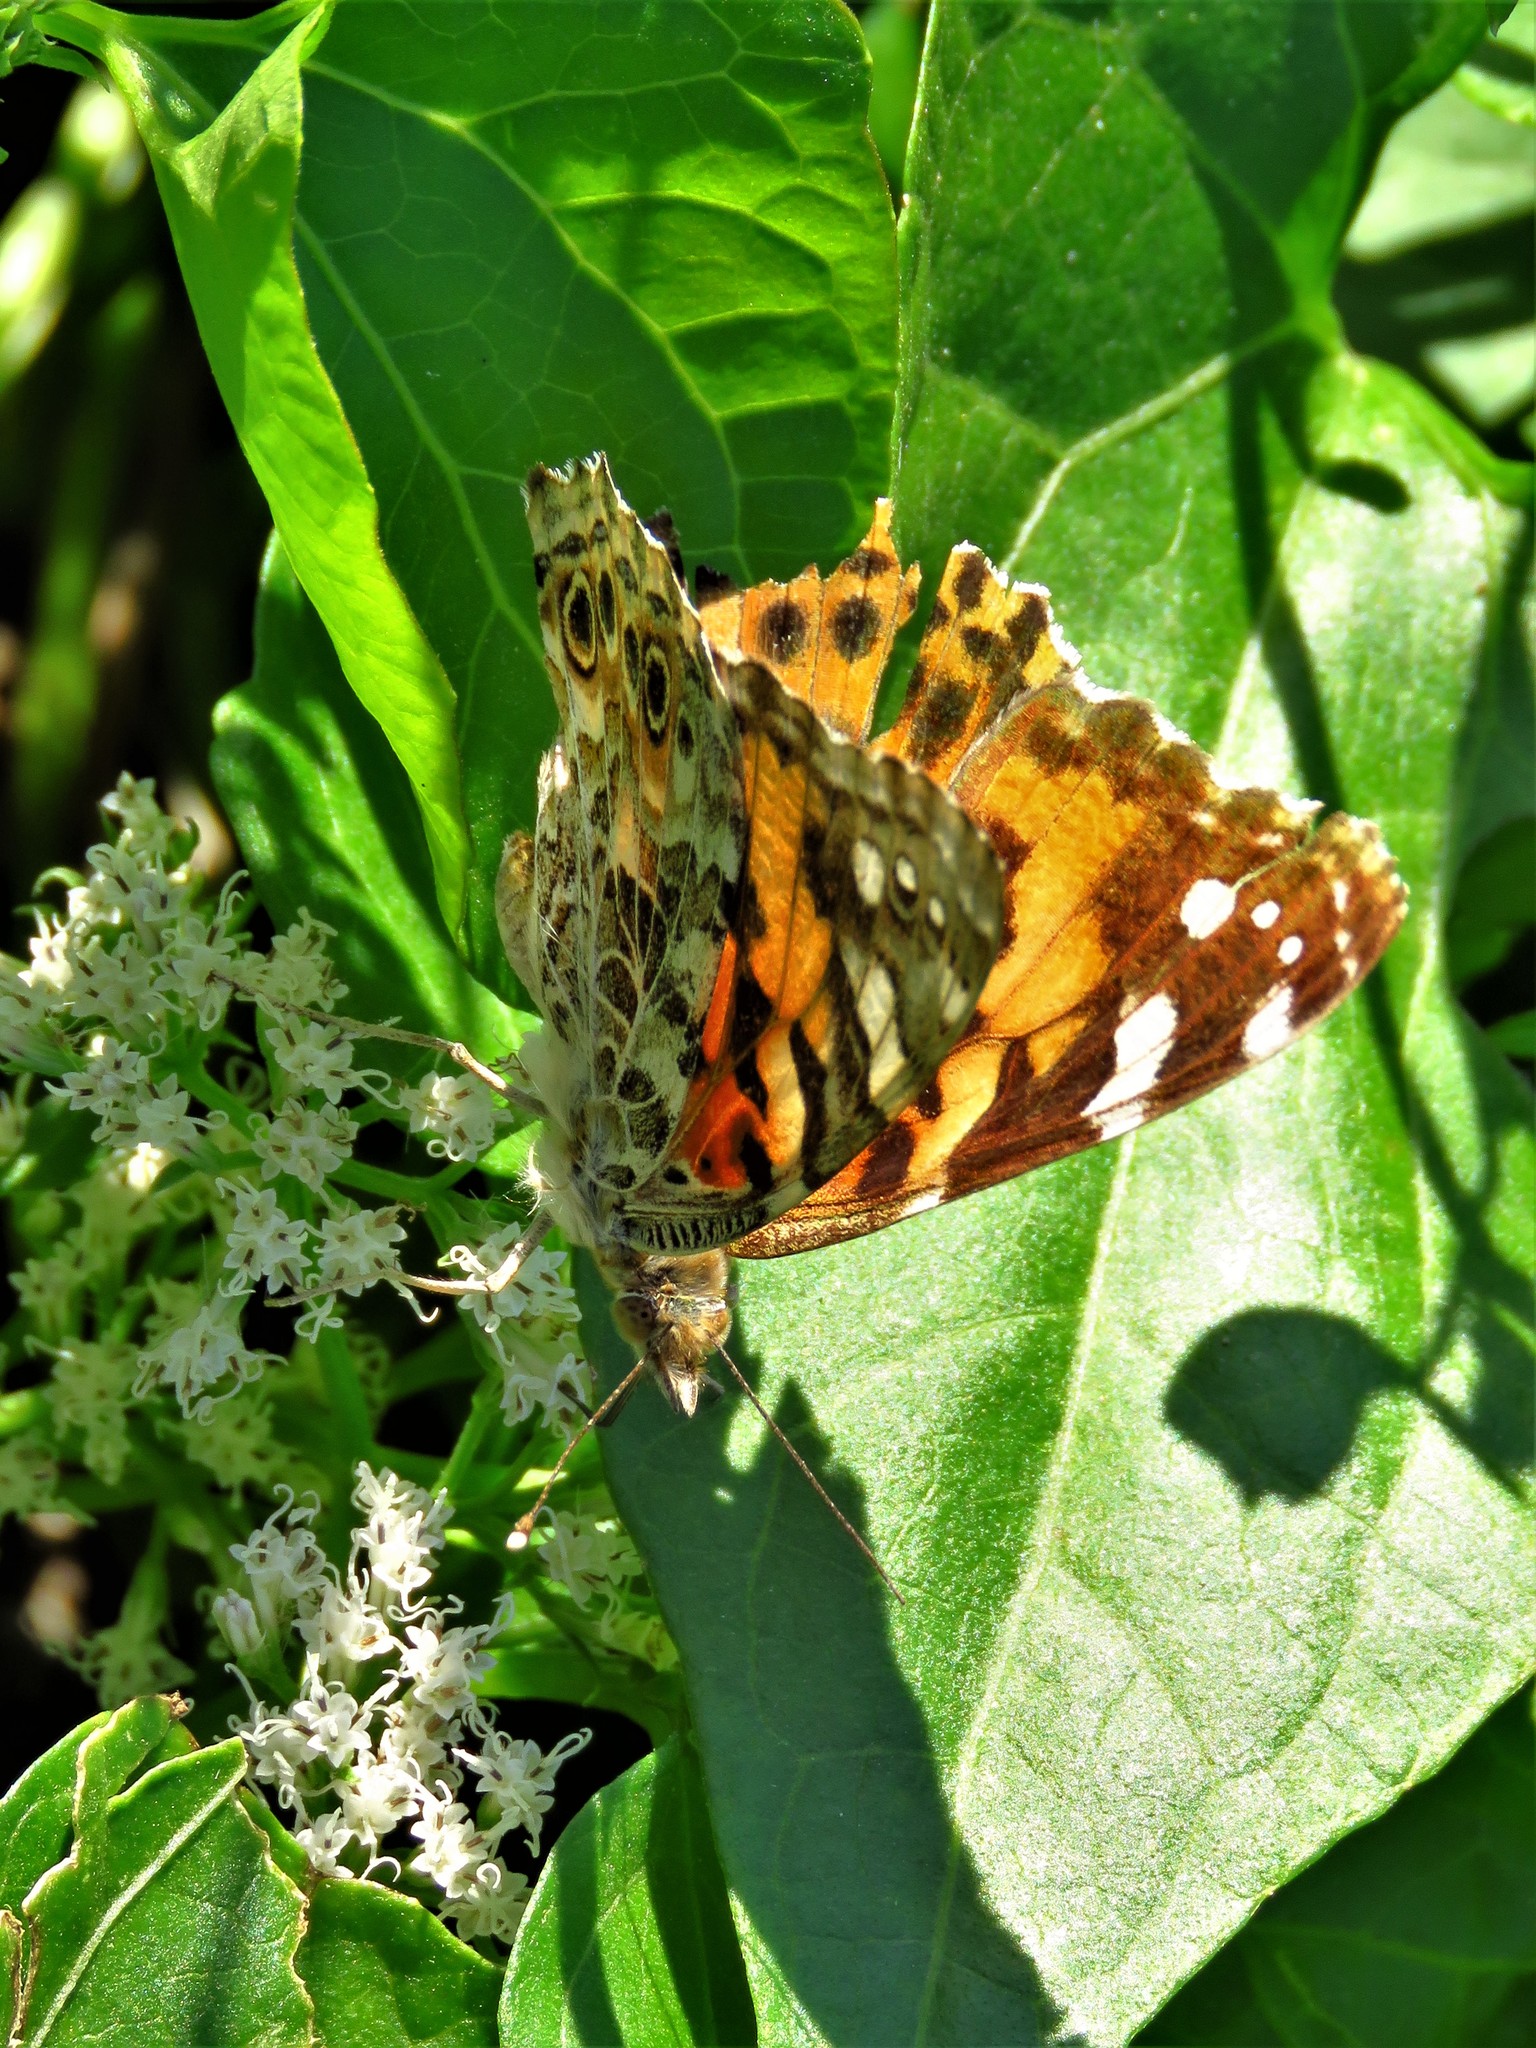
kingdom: Animalia
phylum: Arthropoda
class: Insecta
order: Lepidoptera
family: Nymphalidae
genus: Vanessa
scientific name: Vanessa cardui
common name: Painted lady
